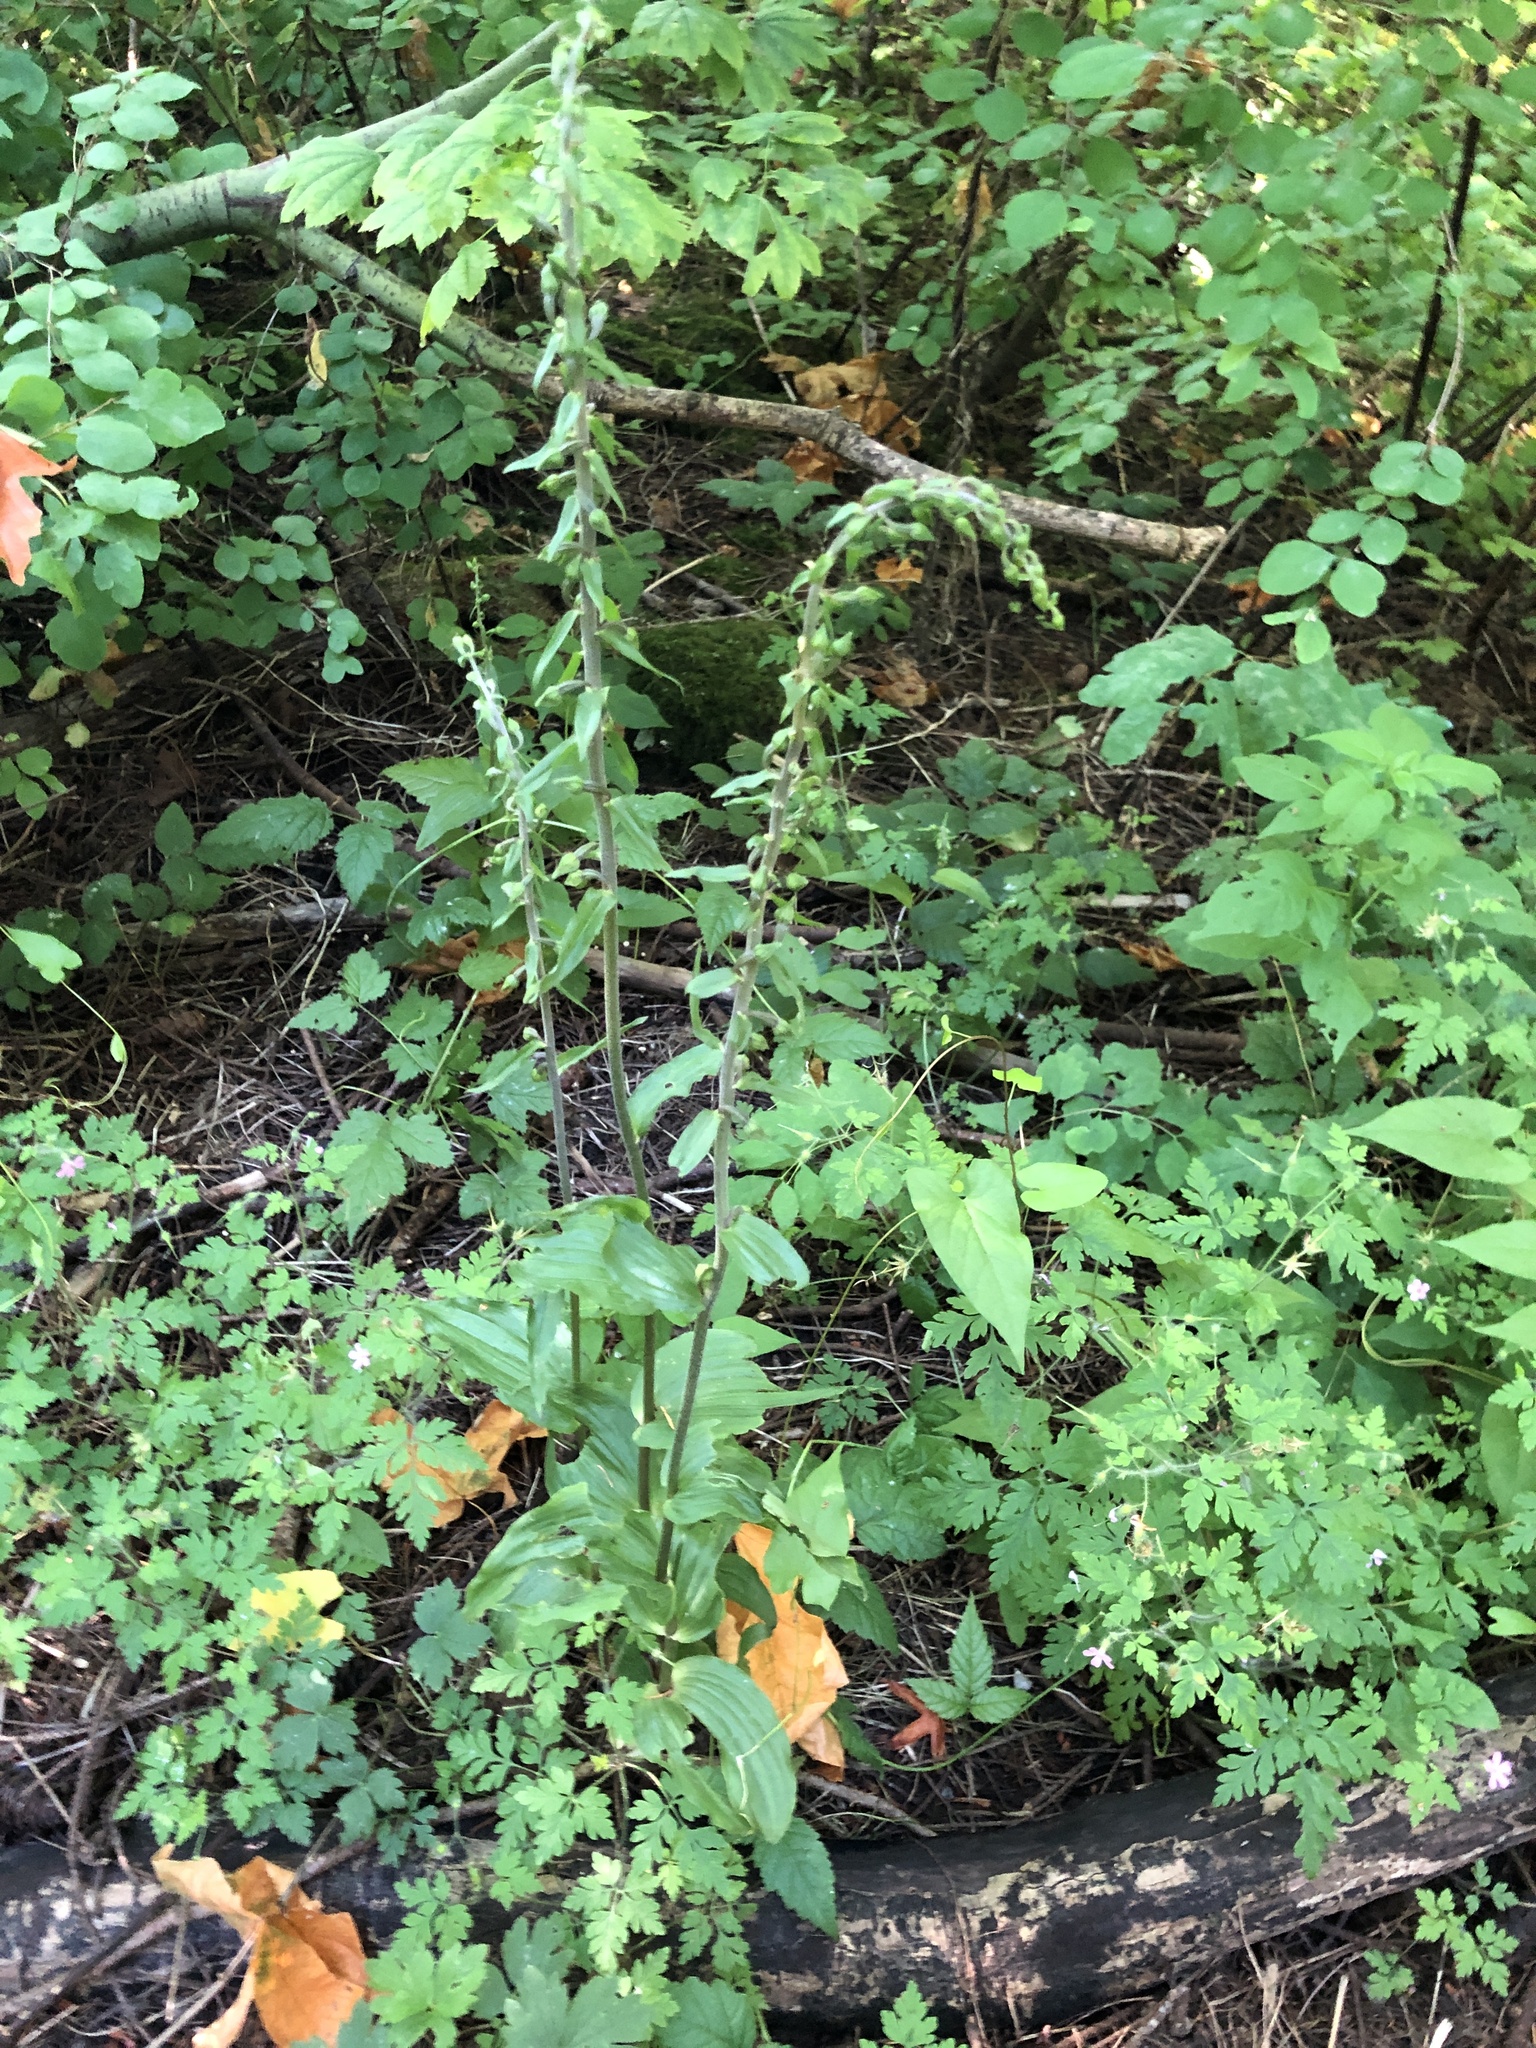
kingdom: Plantae
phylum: Tracheophyta
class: Liliopsida
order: Asparagales
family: Orchidaceae
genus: Epipactis
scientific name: Epipactis helleborine
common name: Broad-leaved helleborine
